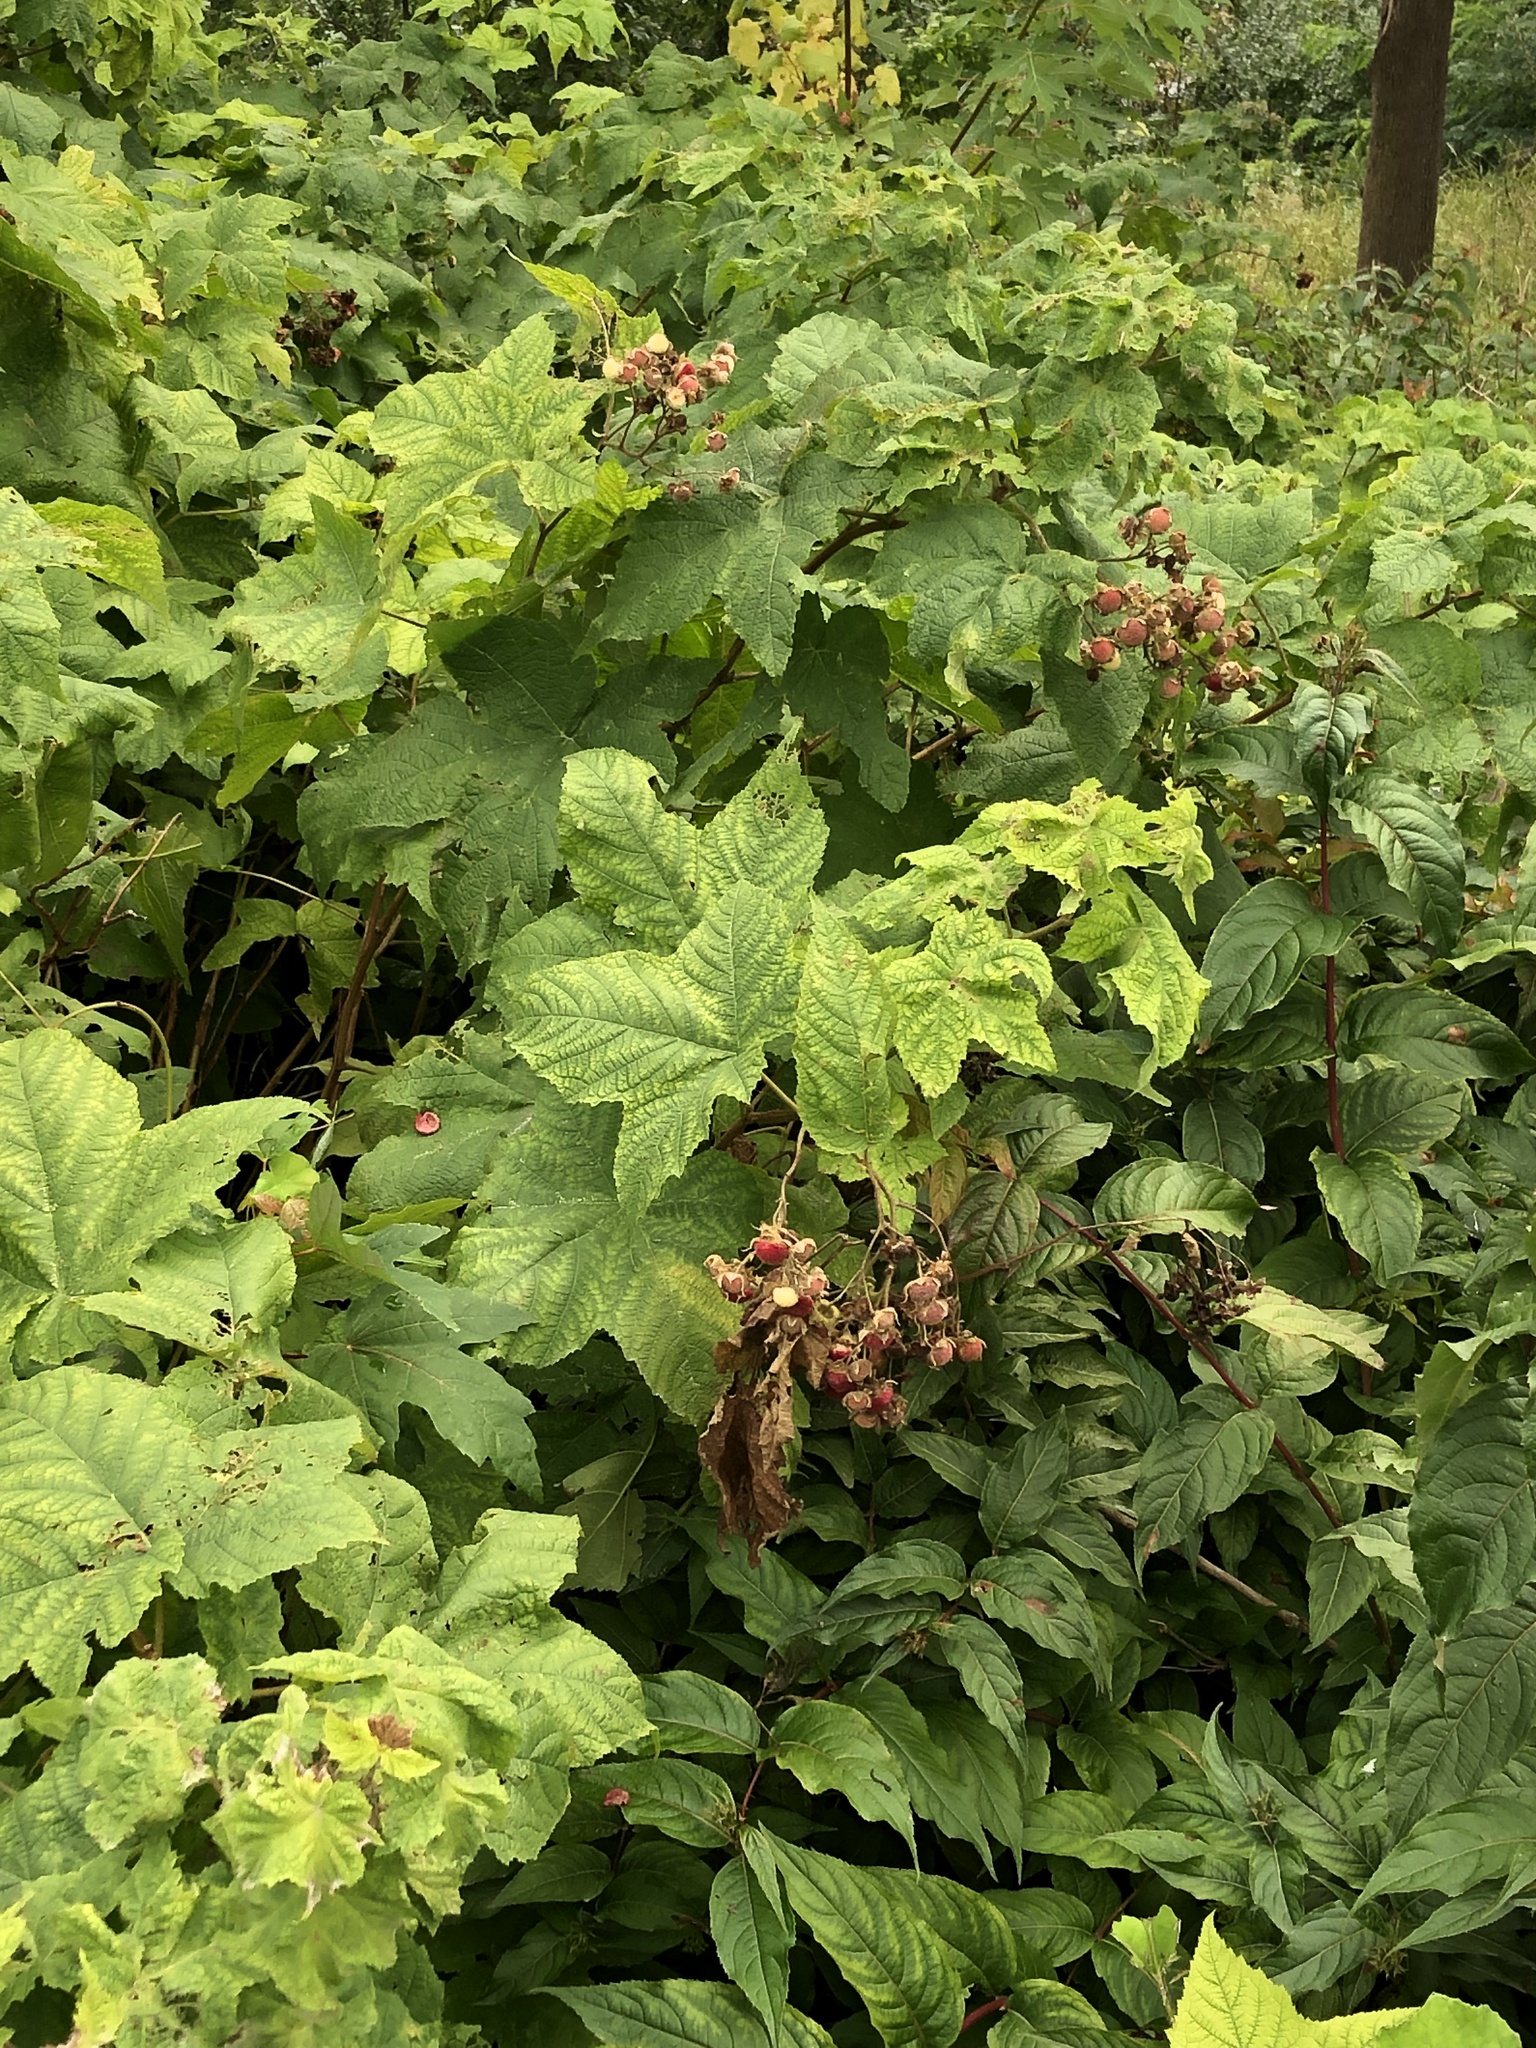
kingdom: Plantae
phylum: Tracheophyta
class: Magnoliopsida
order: Rosales
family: Rosaceae
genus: Rubus
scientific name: Rubus odoratus
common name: Purple-flowered raspberry
